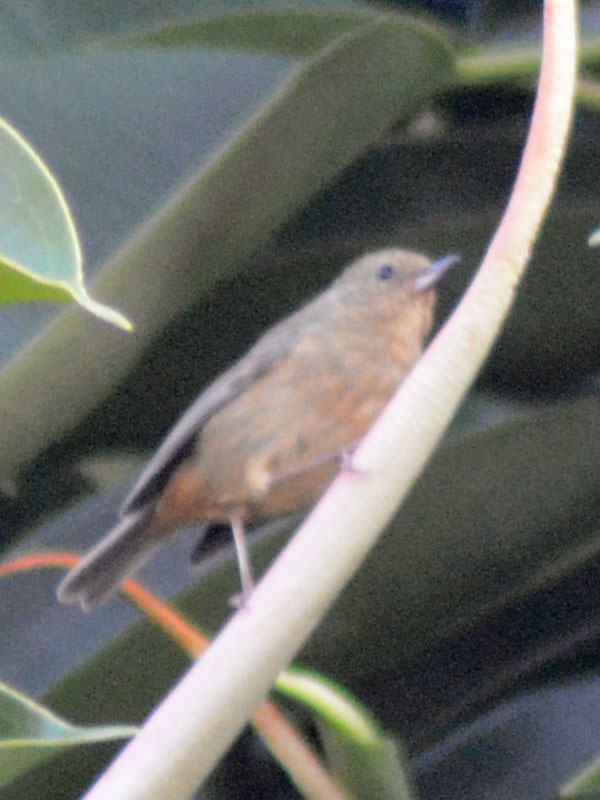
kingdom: Animalia
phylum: Chordata
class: Aves
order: Passeriformes
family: Thraupidae
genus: Diglossa
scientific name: Diglossa baritula
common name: Cinnamon-bellied flowerpiercer
